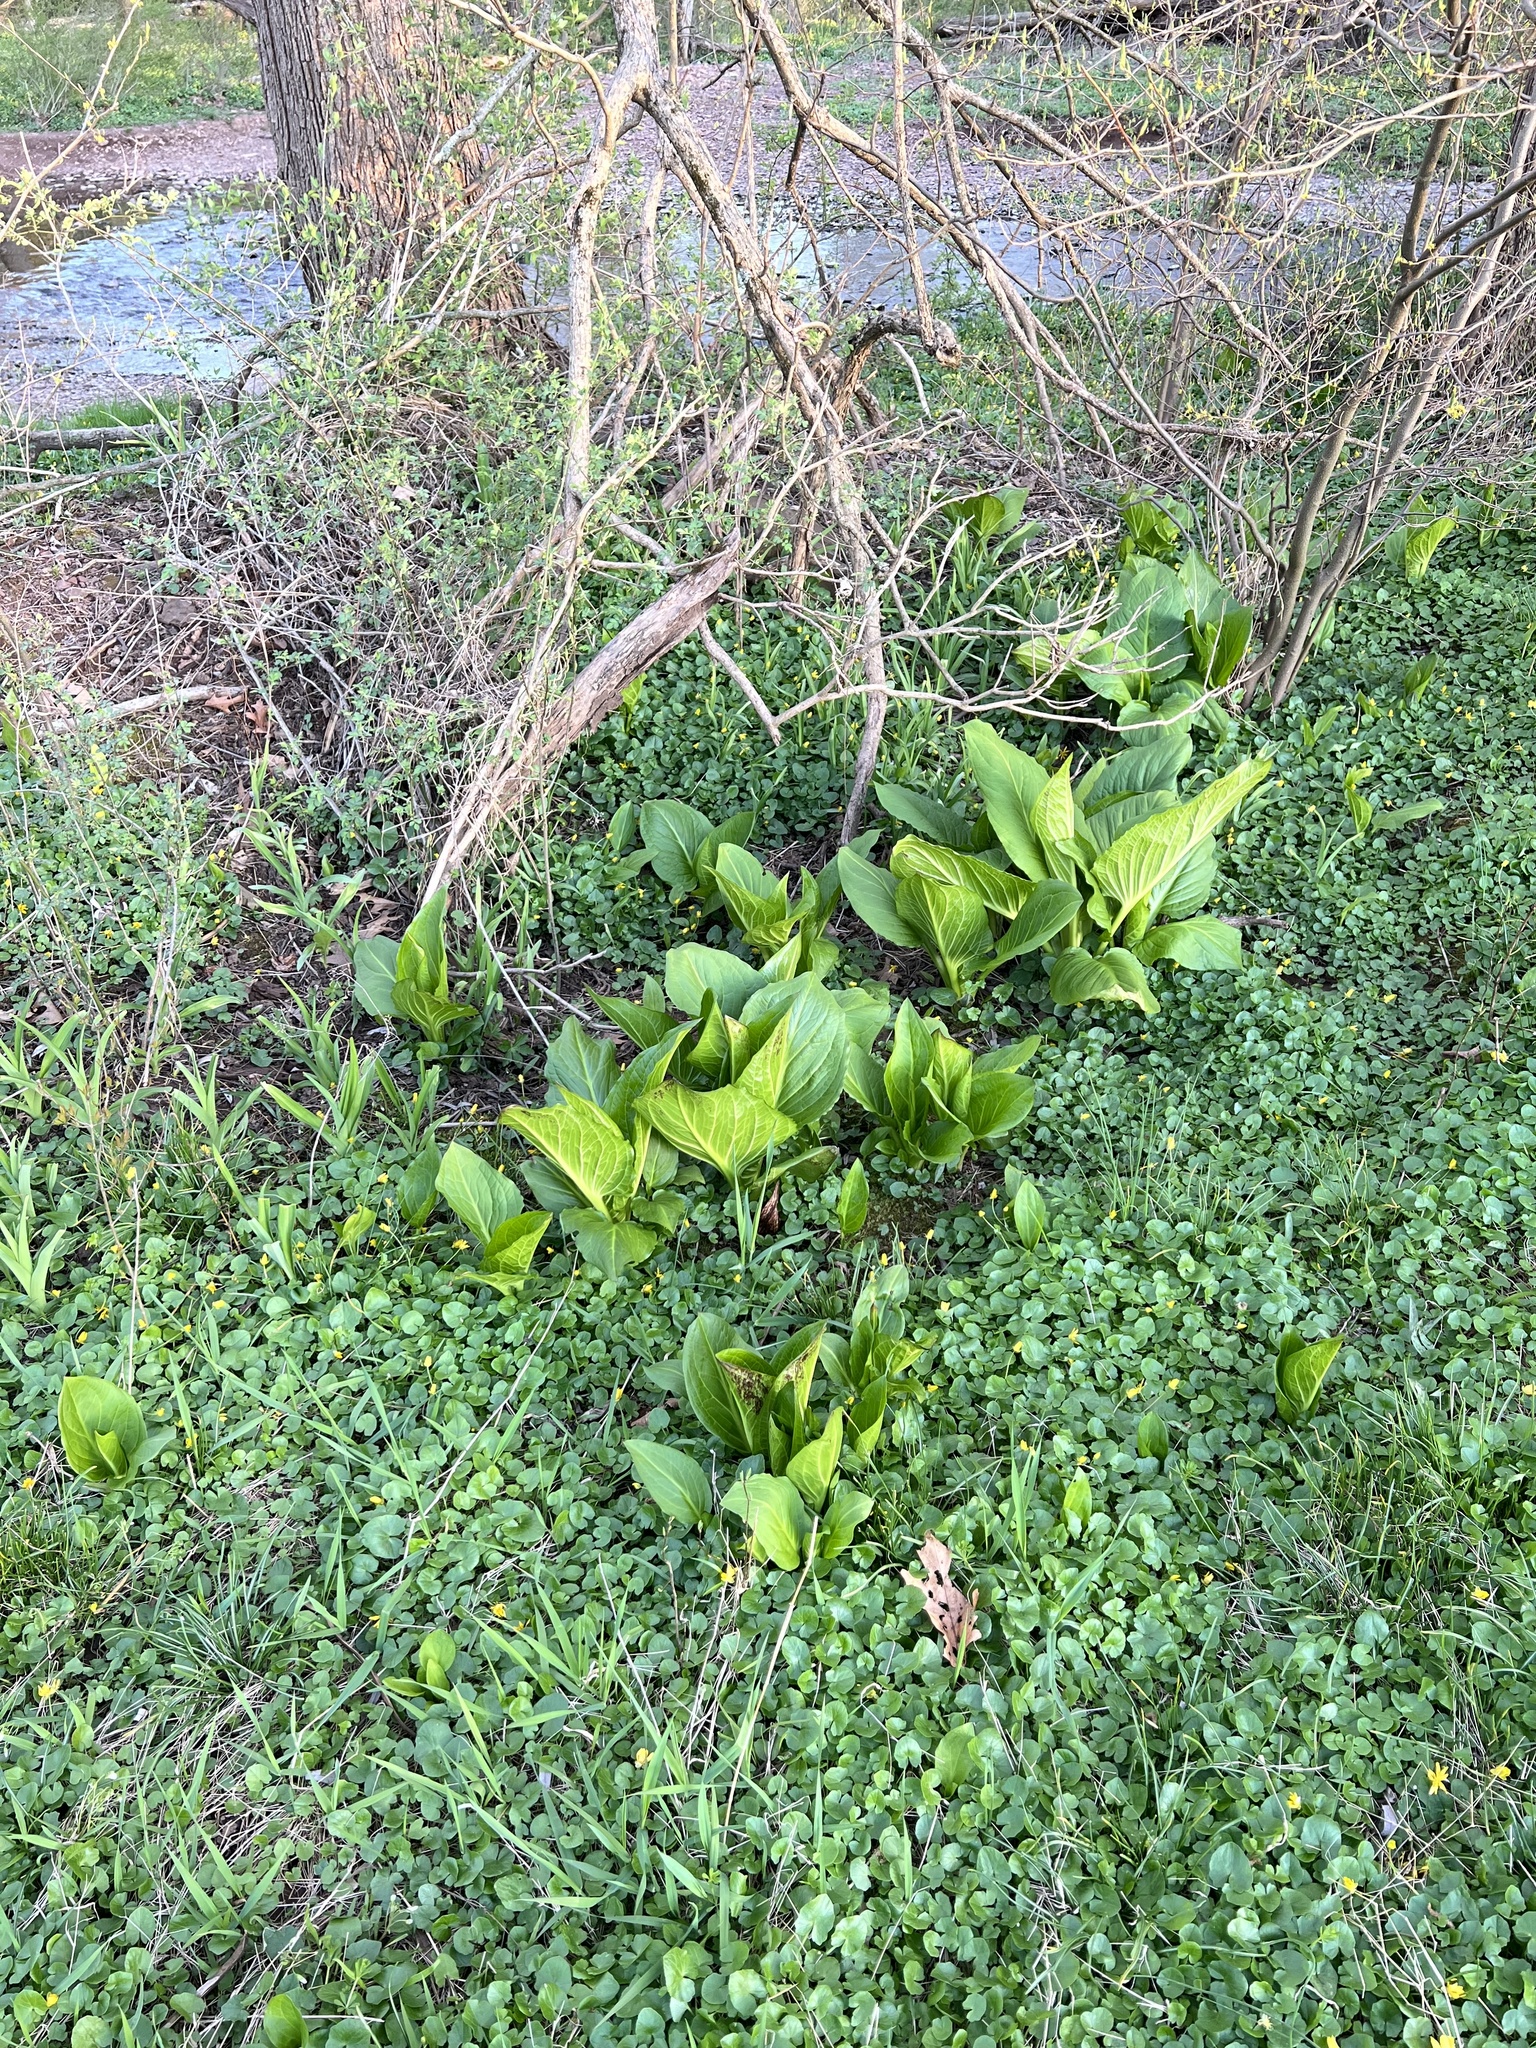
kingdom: Plantae
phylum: Tracheophyta
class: Liliopsida
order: Alismatales
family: Araceae
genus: Symplocarpus
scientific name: Symplocarpus foetidus
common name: Eastern skunk cabbage
